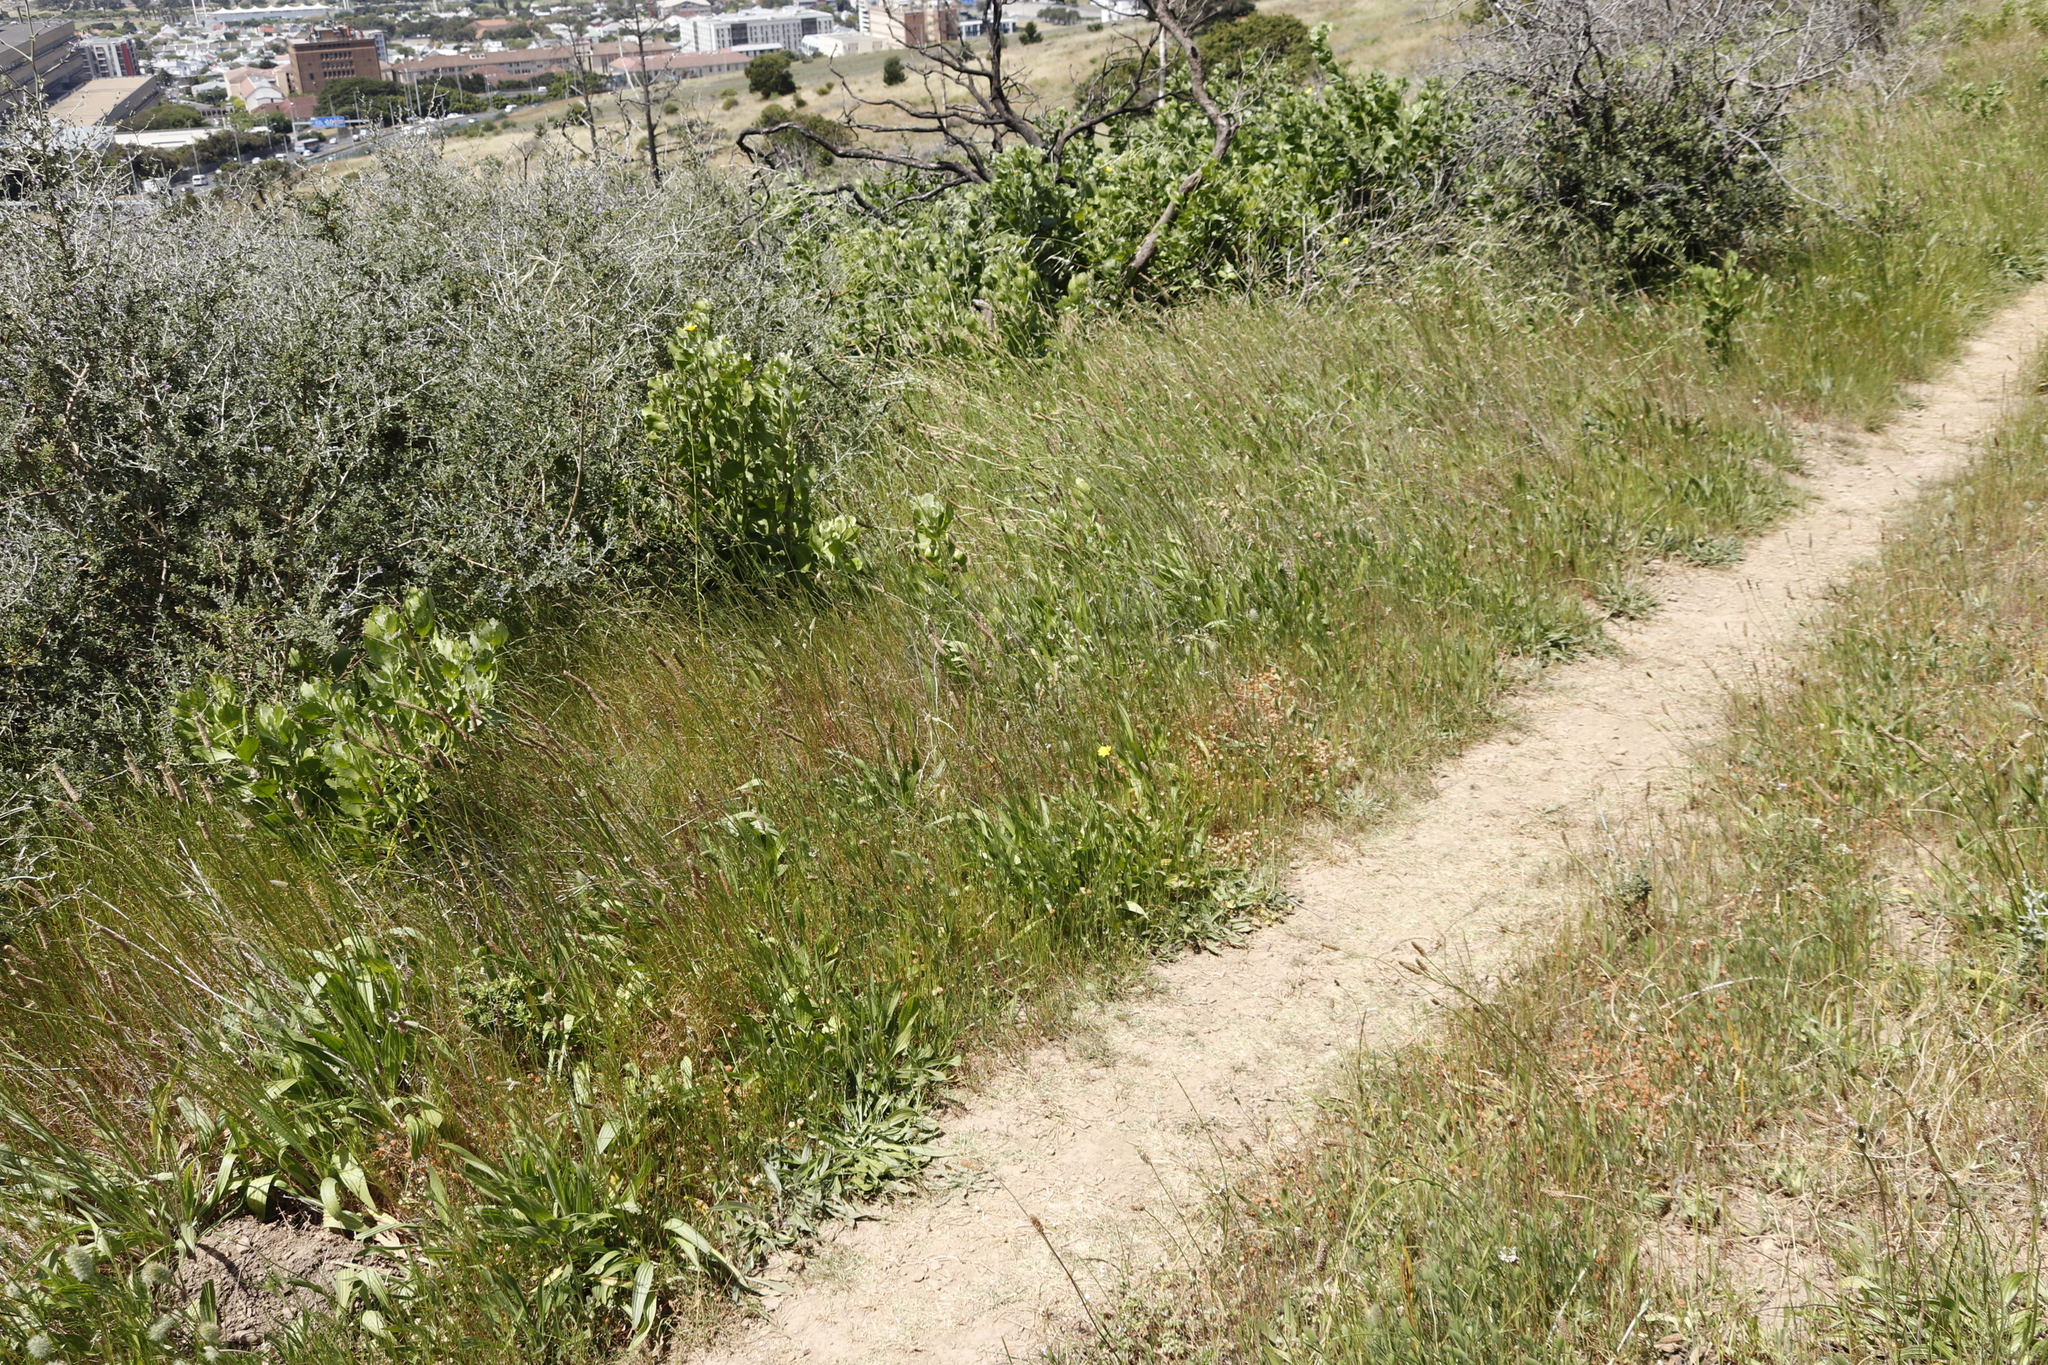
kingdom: Plantae
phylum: Tracheophyta
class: Magnoliopsida
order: Lamiales
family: Plantaginaceae
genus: Plantago
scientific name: Plantago lanceolata
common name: Ribwort plantain
